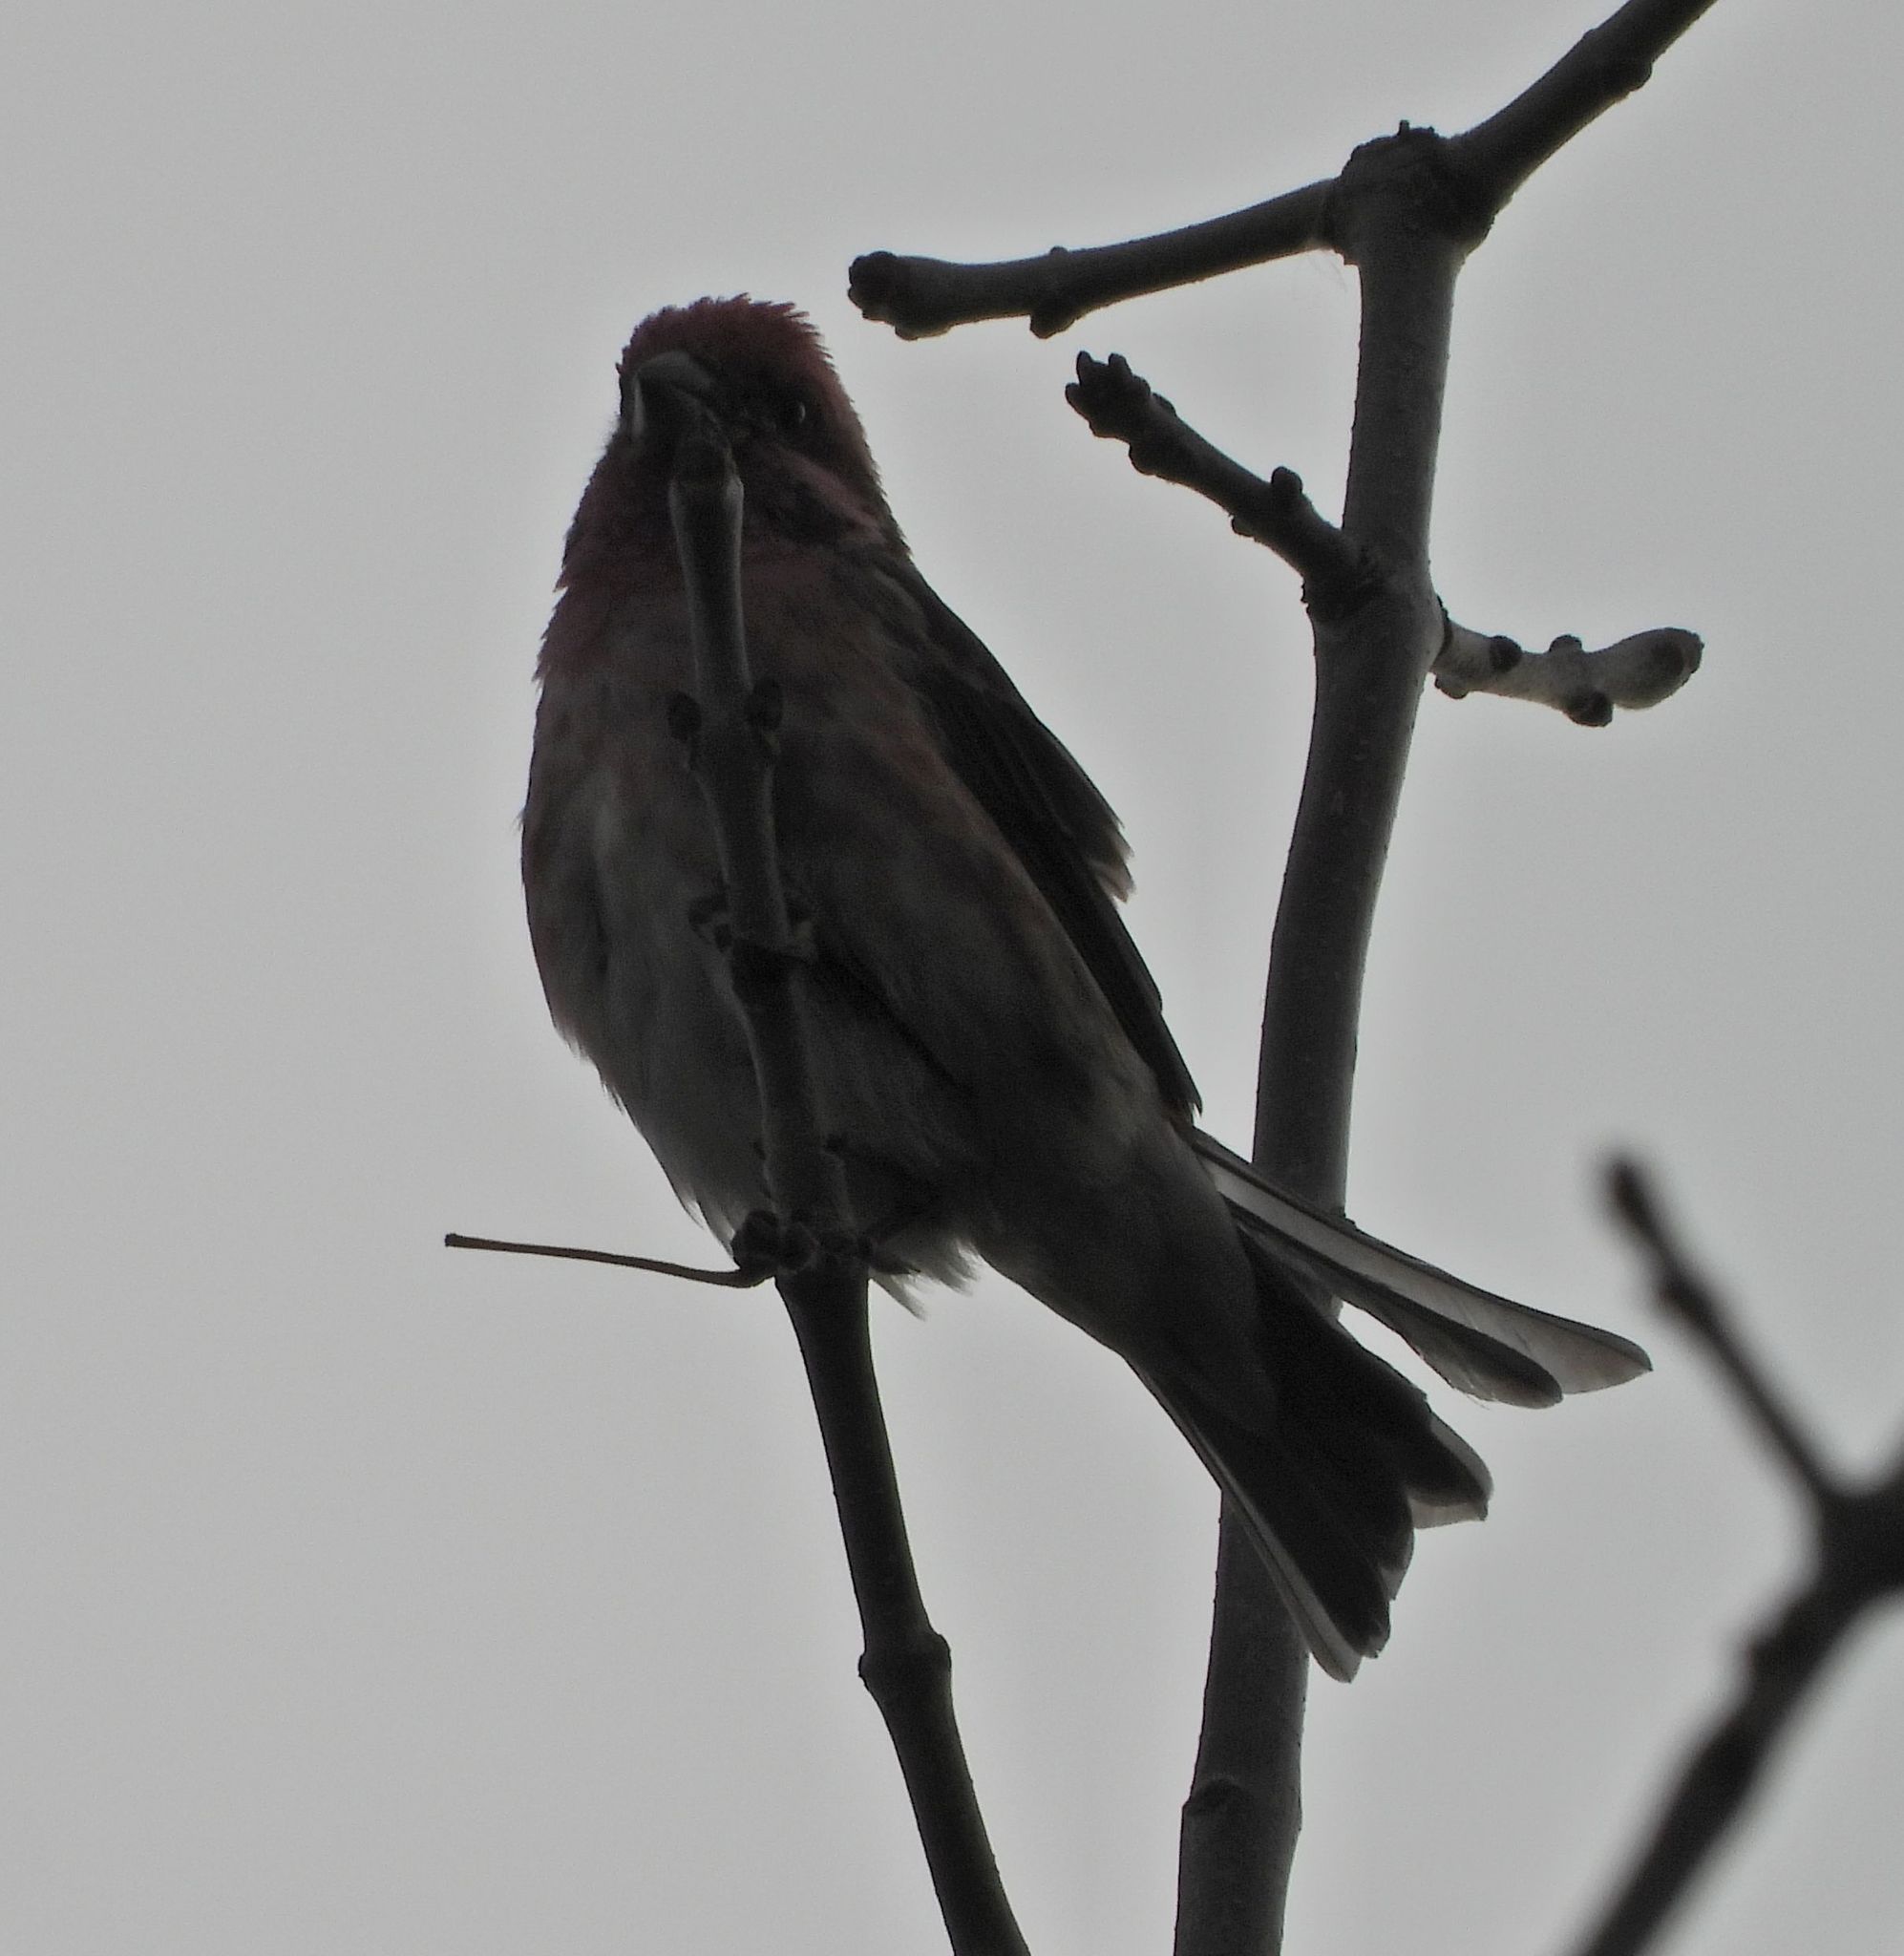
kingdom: Animalia
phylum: Chordata
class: Aves
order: Passeriformes
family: Fringillidae
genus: Haemorhous
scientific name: Haemorhous purpureus
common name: Purple finch
